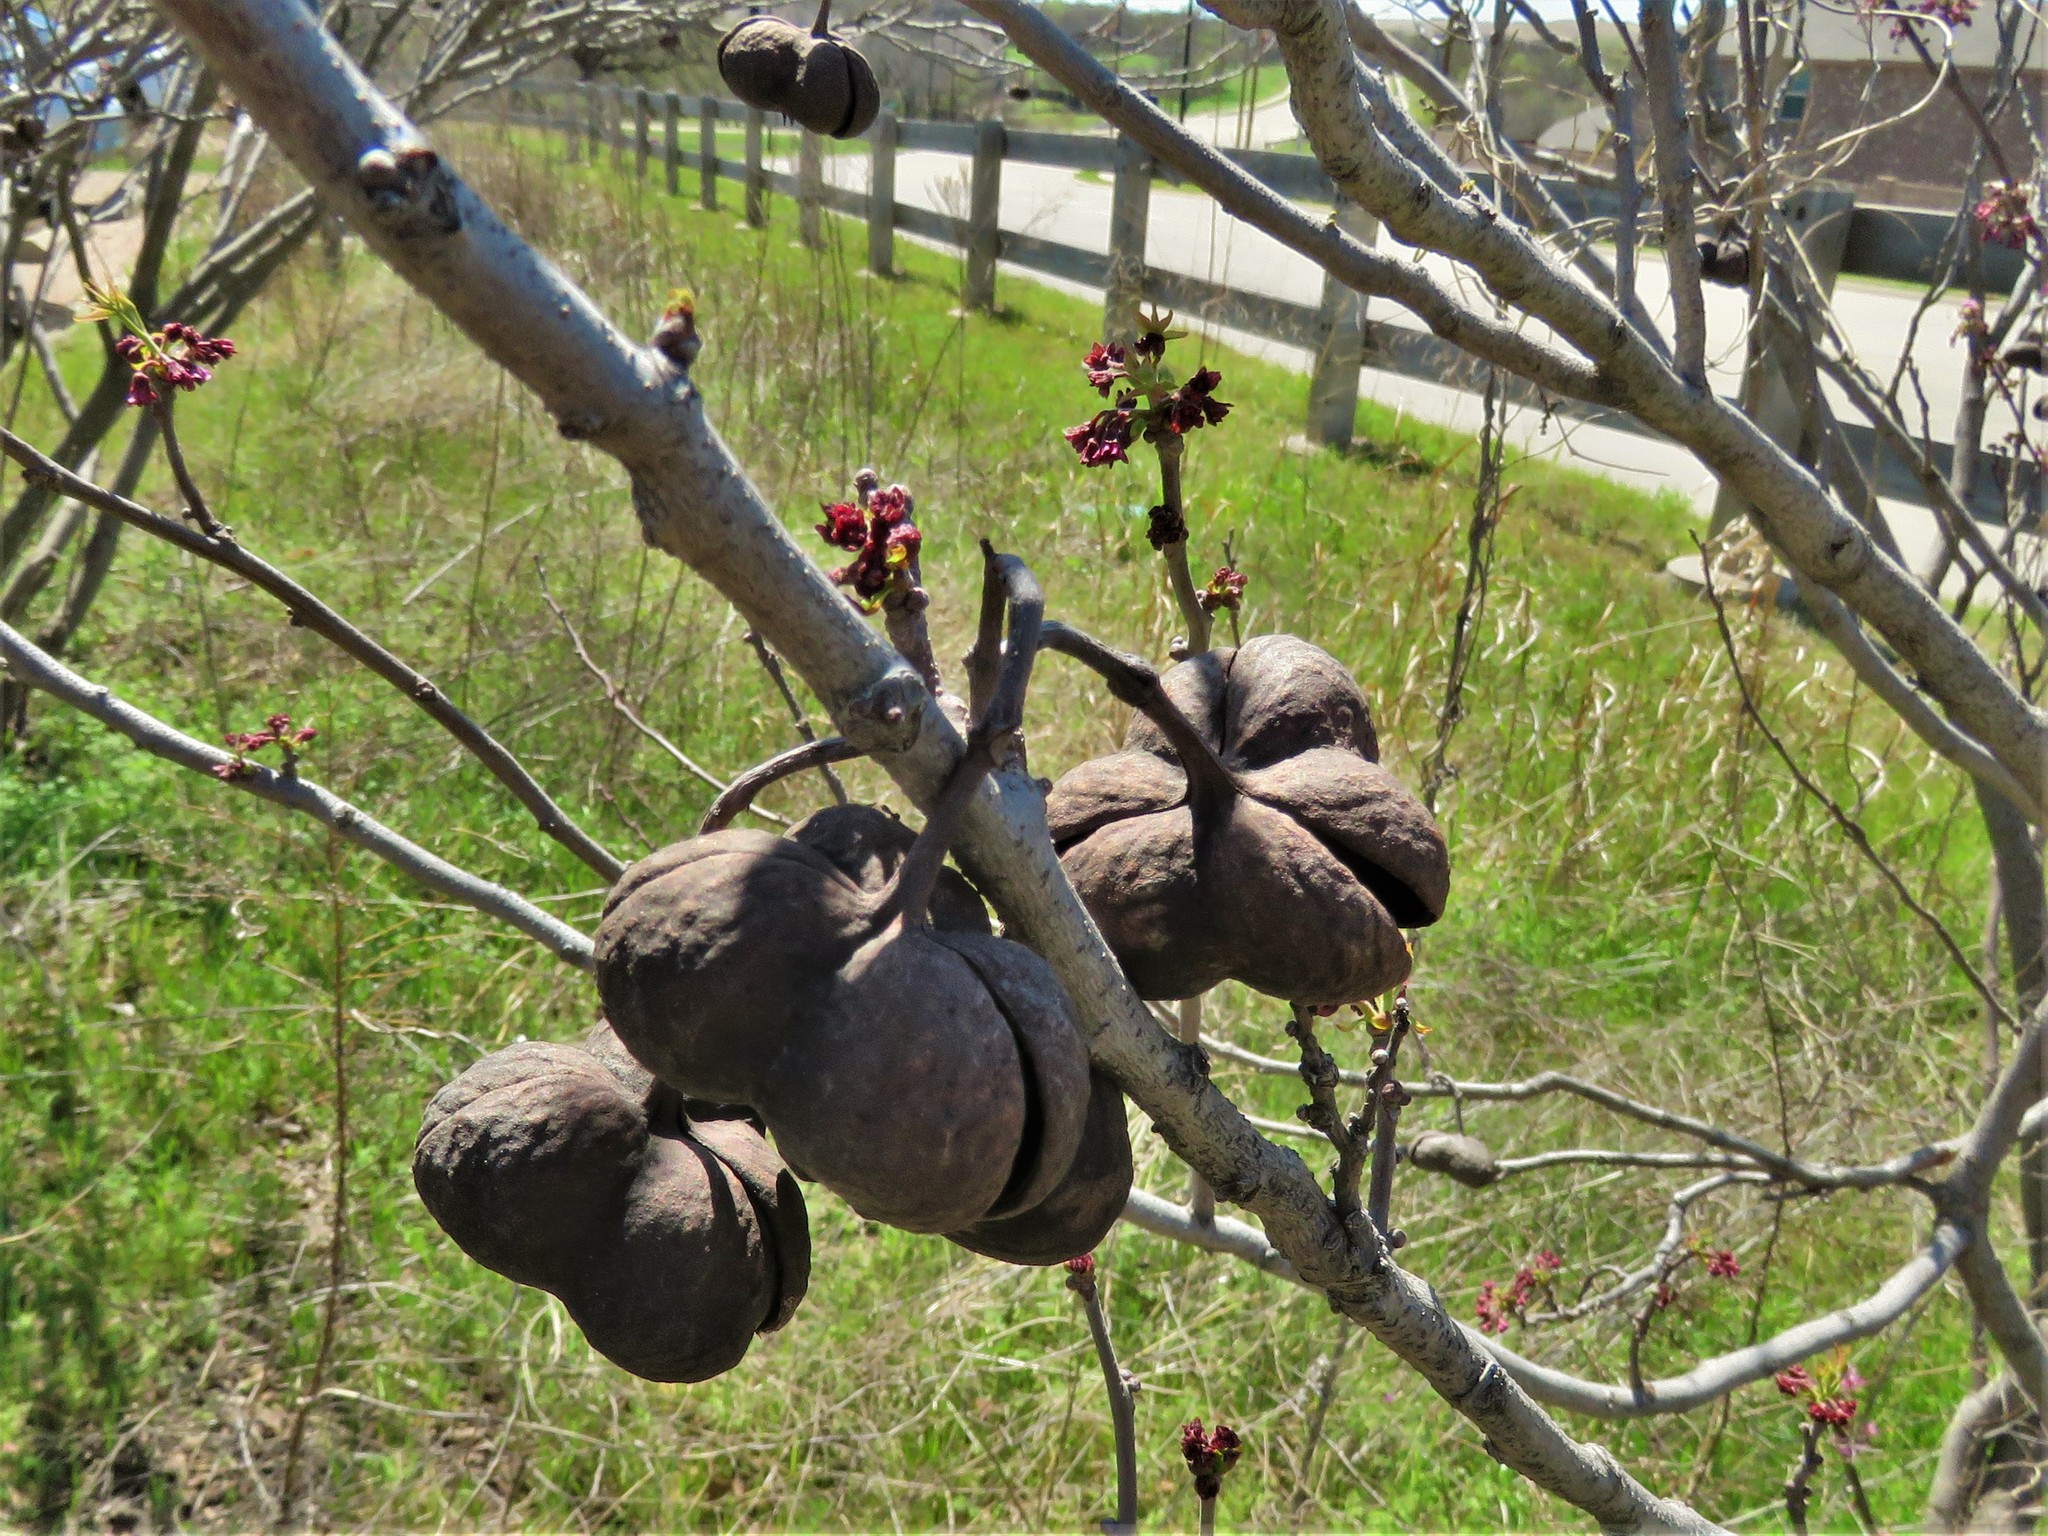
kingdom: Plantae
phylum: Tracheophyta
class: Magnoliopsida
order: Sapindales
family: Sapindaceae
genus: Ungnadia
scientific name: Ungnadia speciosa
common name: Texas-buckeye
